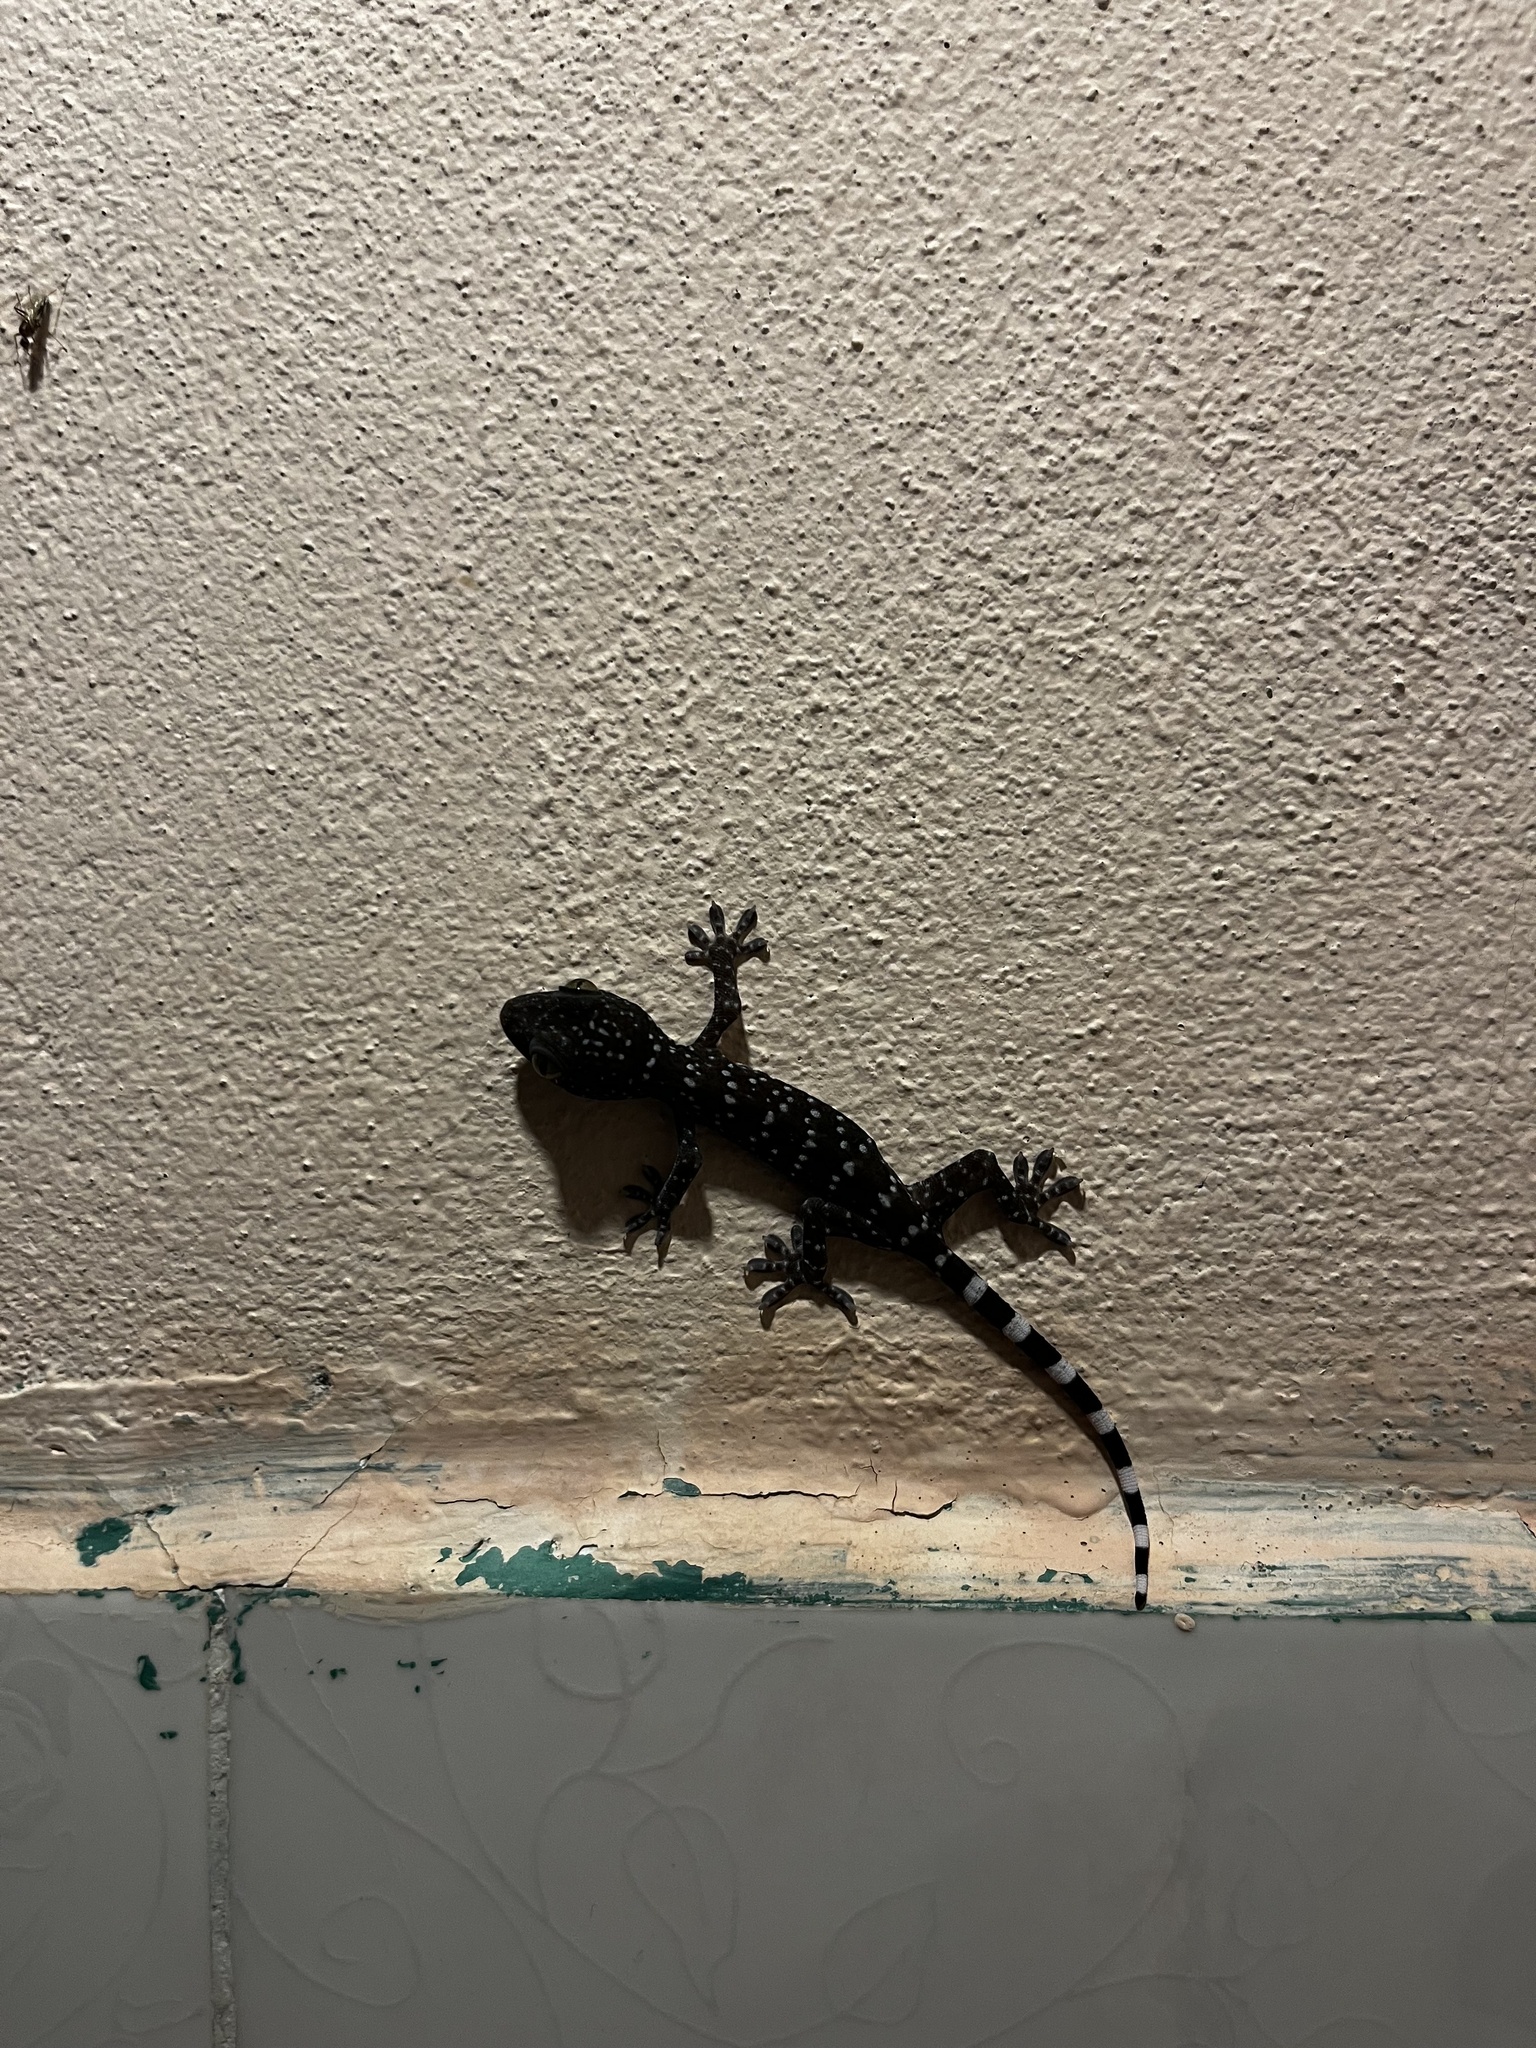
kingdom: Animalia
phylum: Chordata
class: Squamata
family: Gekkonidae
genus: Gekko
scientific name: Gekko gecko
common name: Tokay gecko
